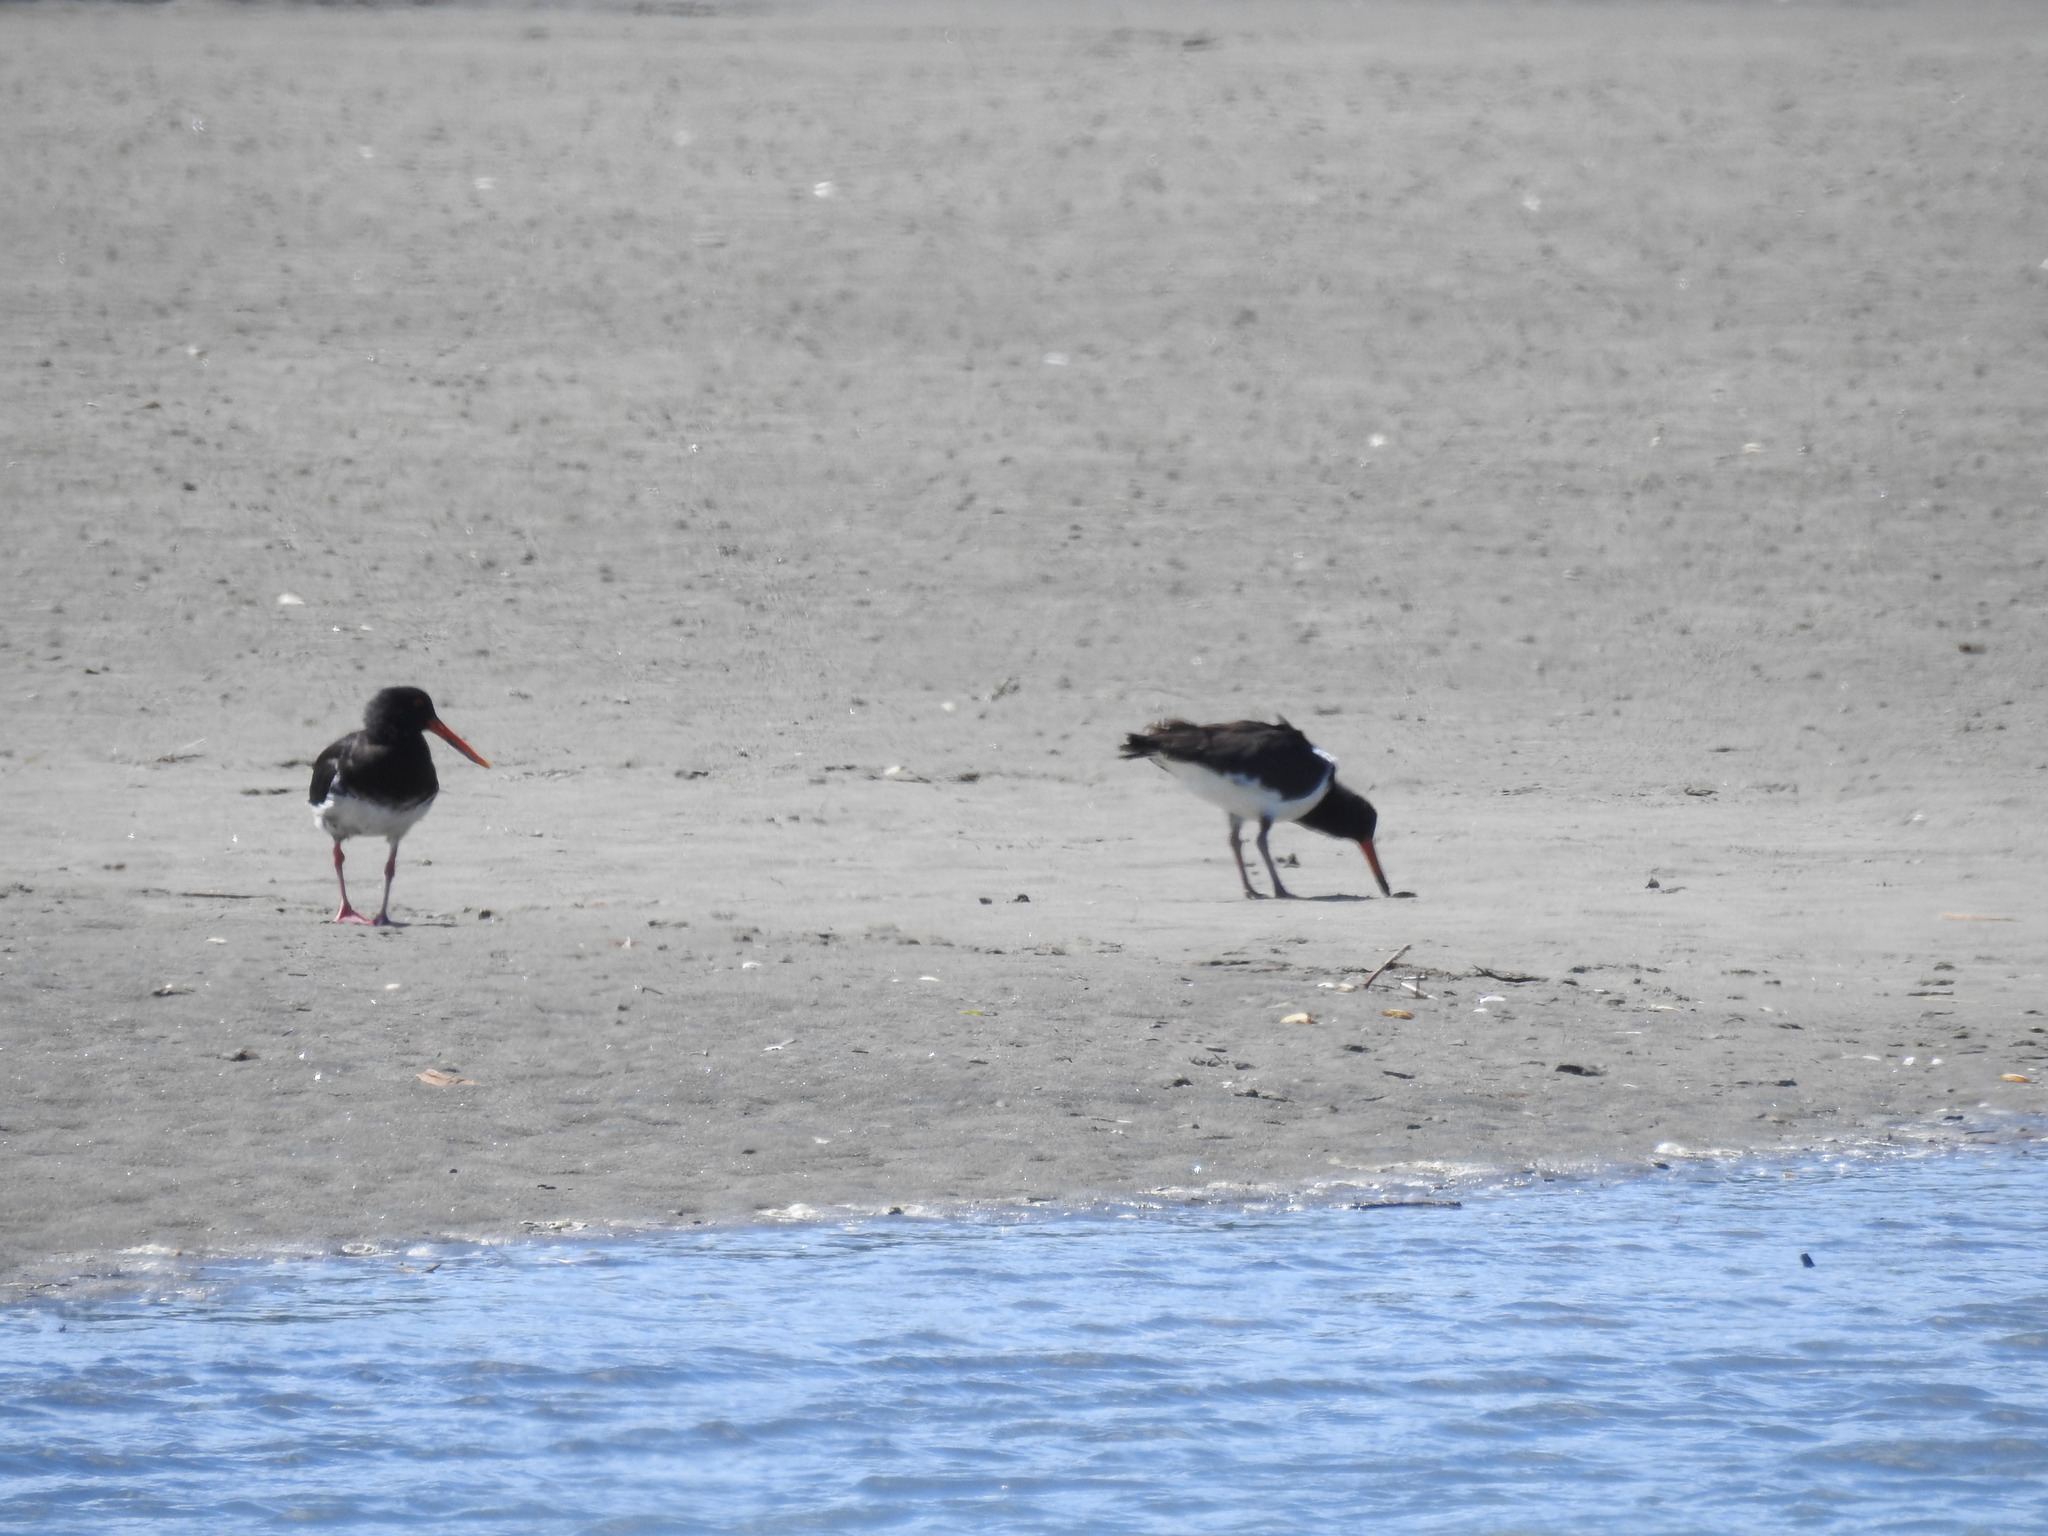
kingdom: Animalia
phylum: Chordata
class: Aves
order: Charadriiformes
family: Haematopodidae
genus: Haematopus
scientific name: Haematopus unicolor
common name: Variable oystercatcher
